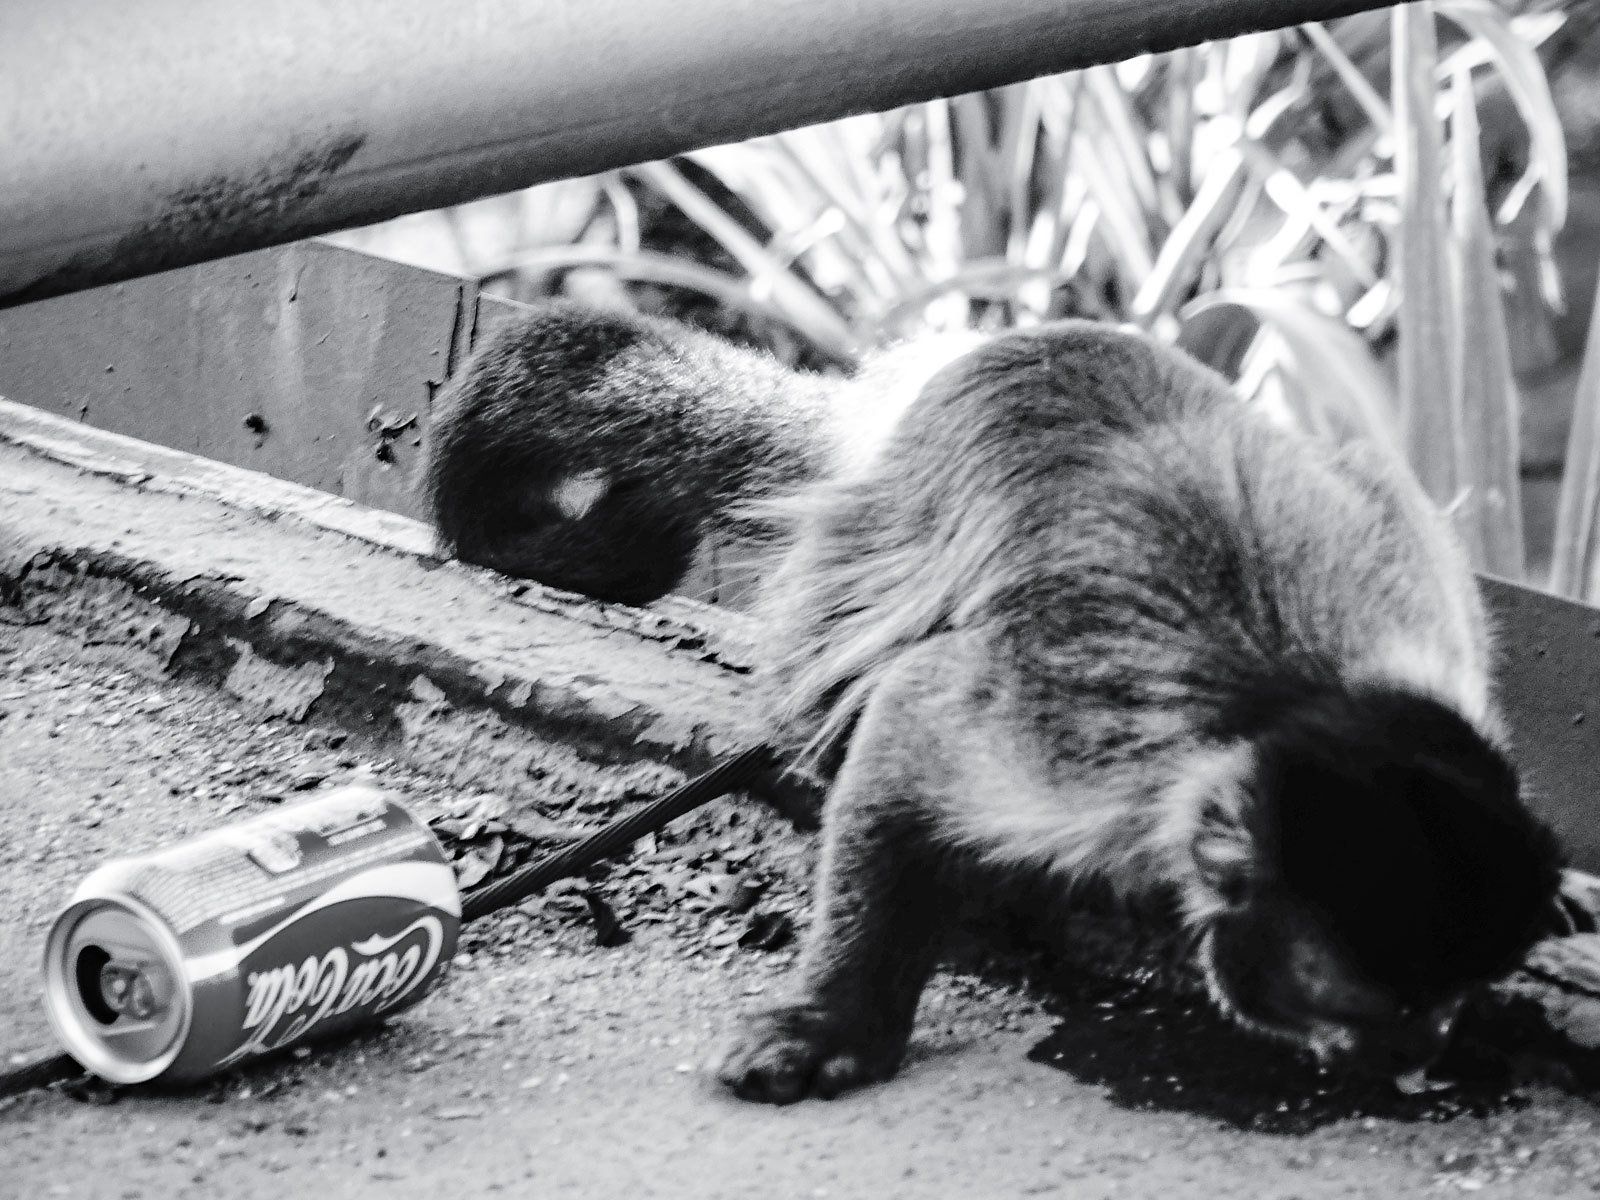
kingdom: Animalia
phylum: Chordata
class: Mammalia
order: Primates
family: Cebidae
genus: Sapajus
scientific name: Sapajus nigritus
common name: Black capuchin
